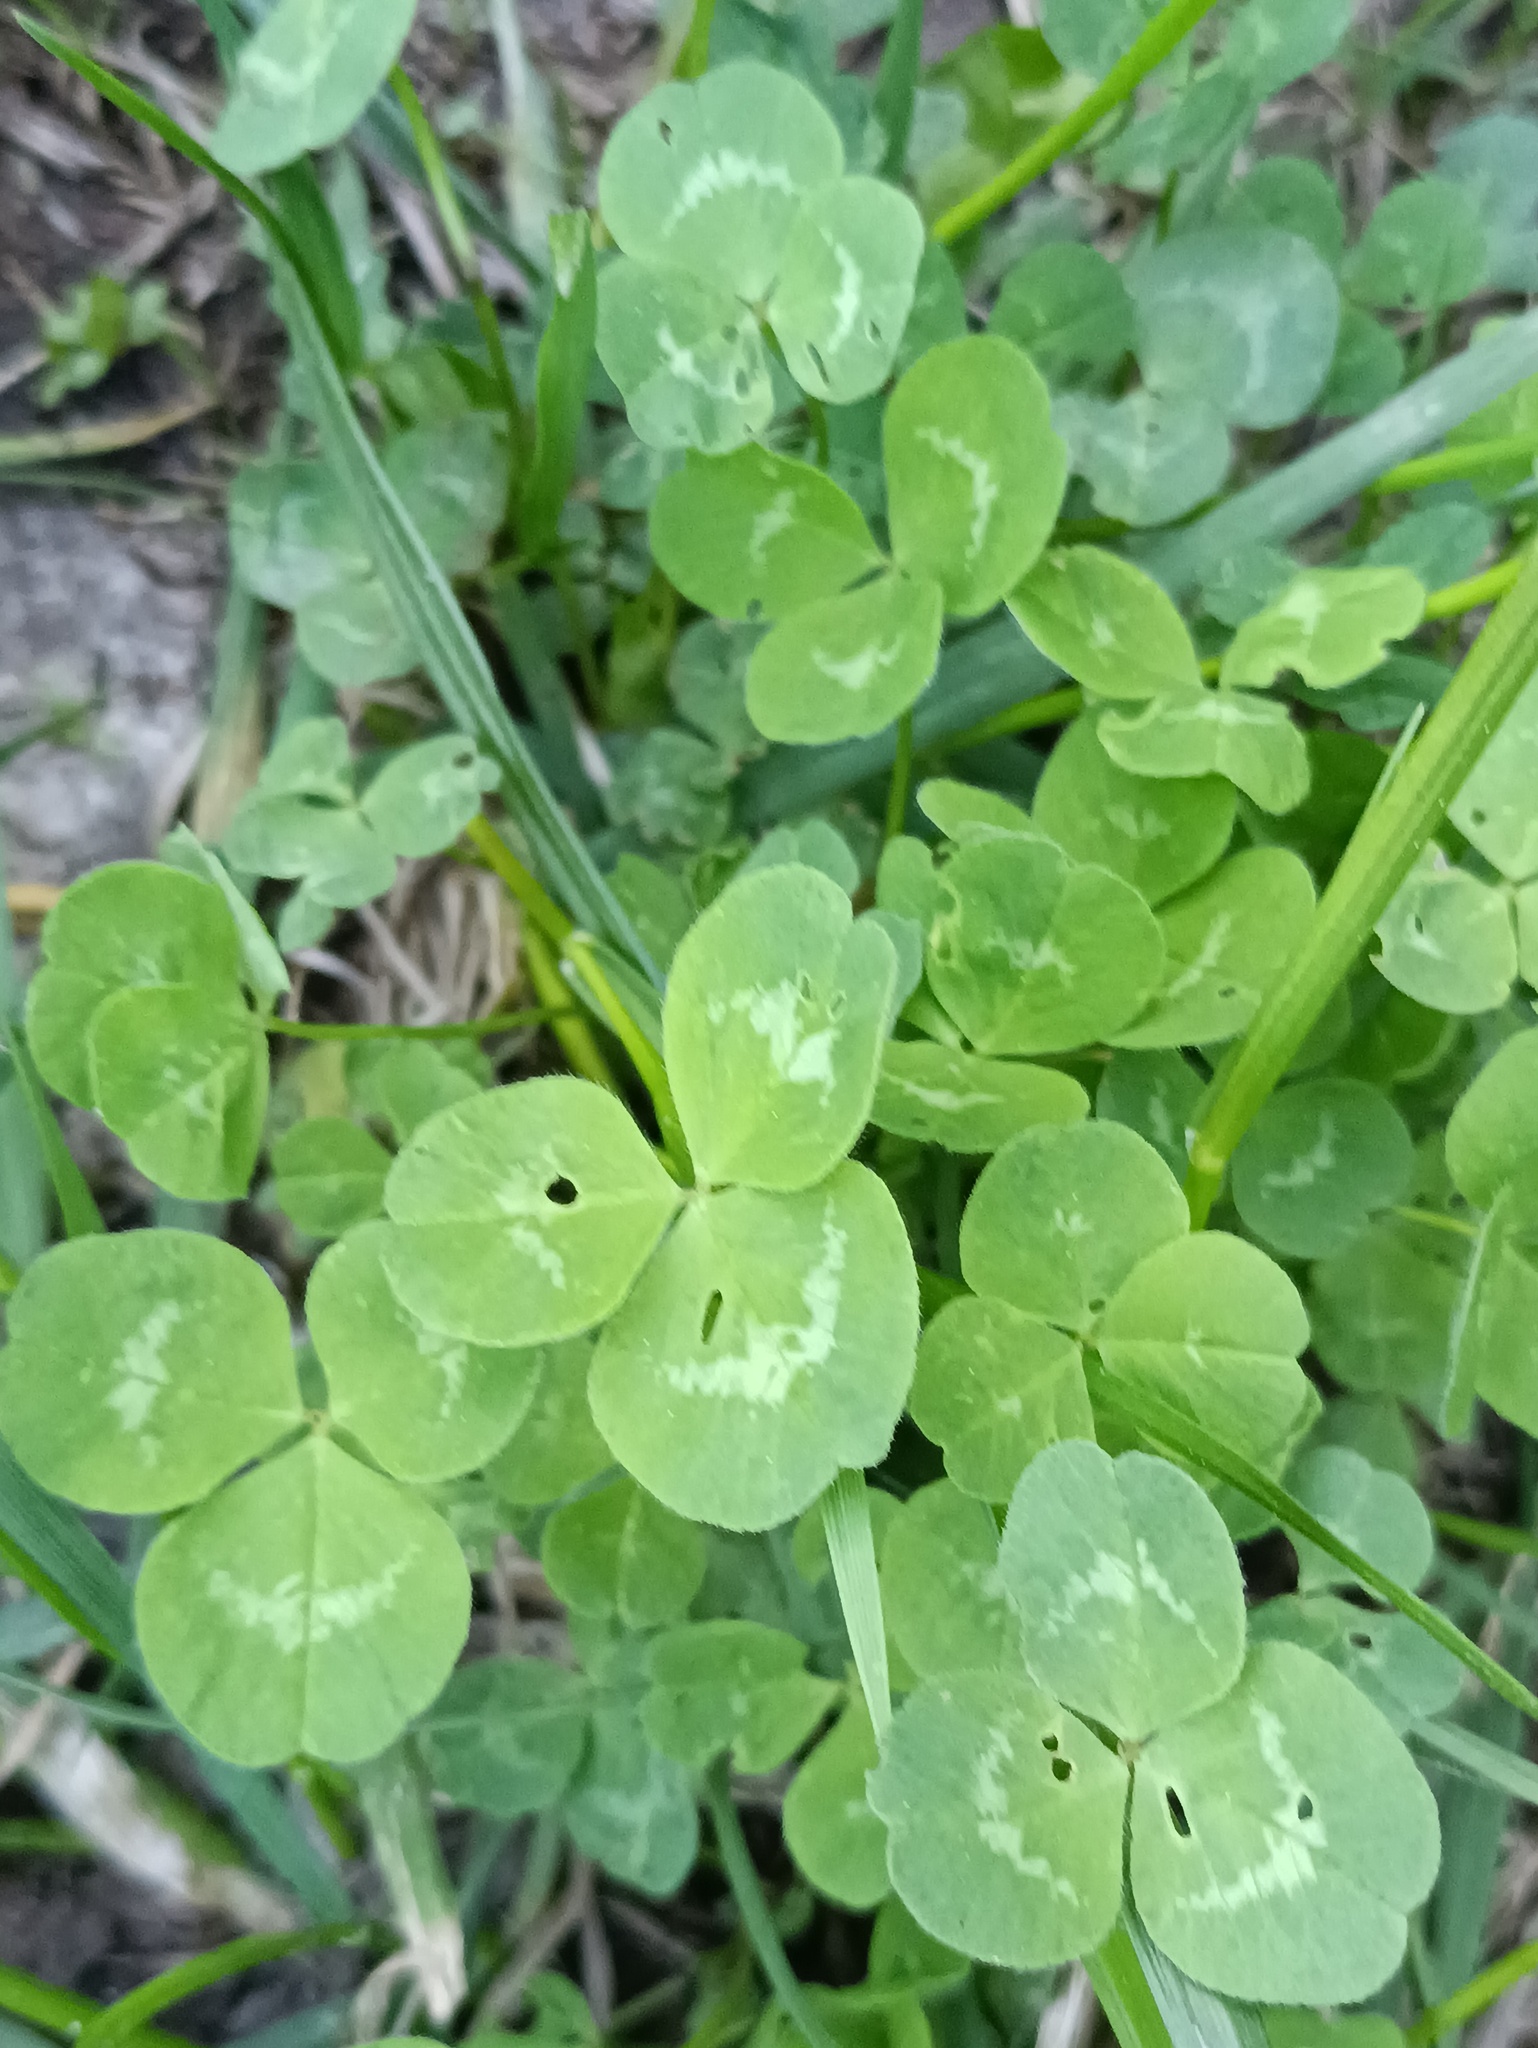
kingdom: Plantae
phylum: Tracheophyta
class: Magnoliopsida
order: Fabales
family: Fabaceae
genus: Trifolium
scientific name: Trifolium repens
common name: White clover
